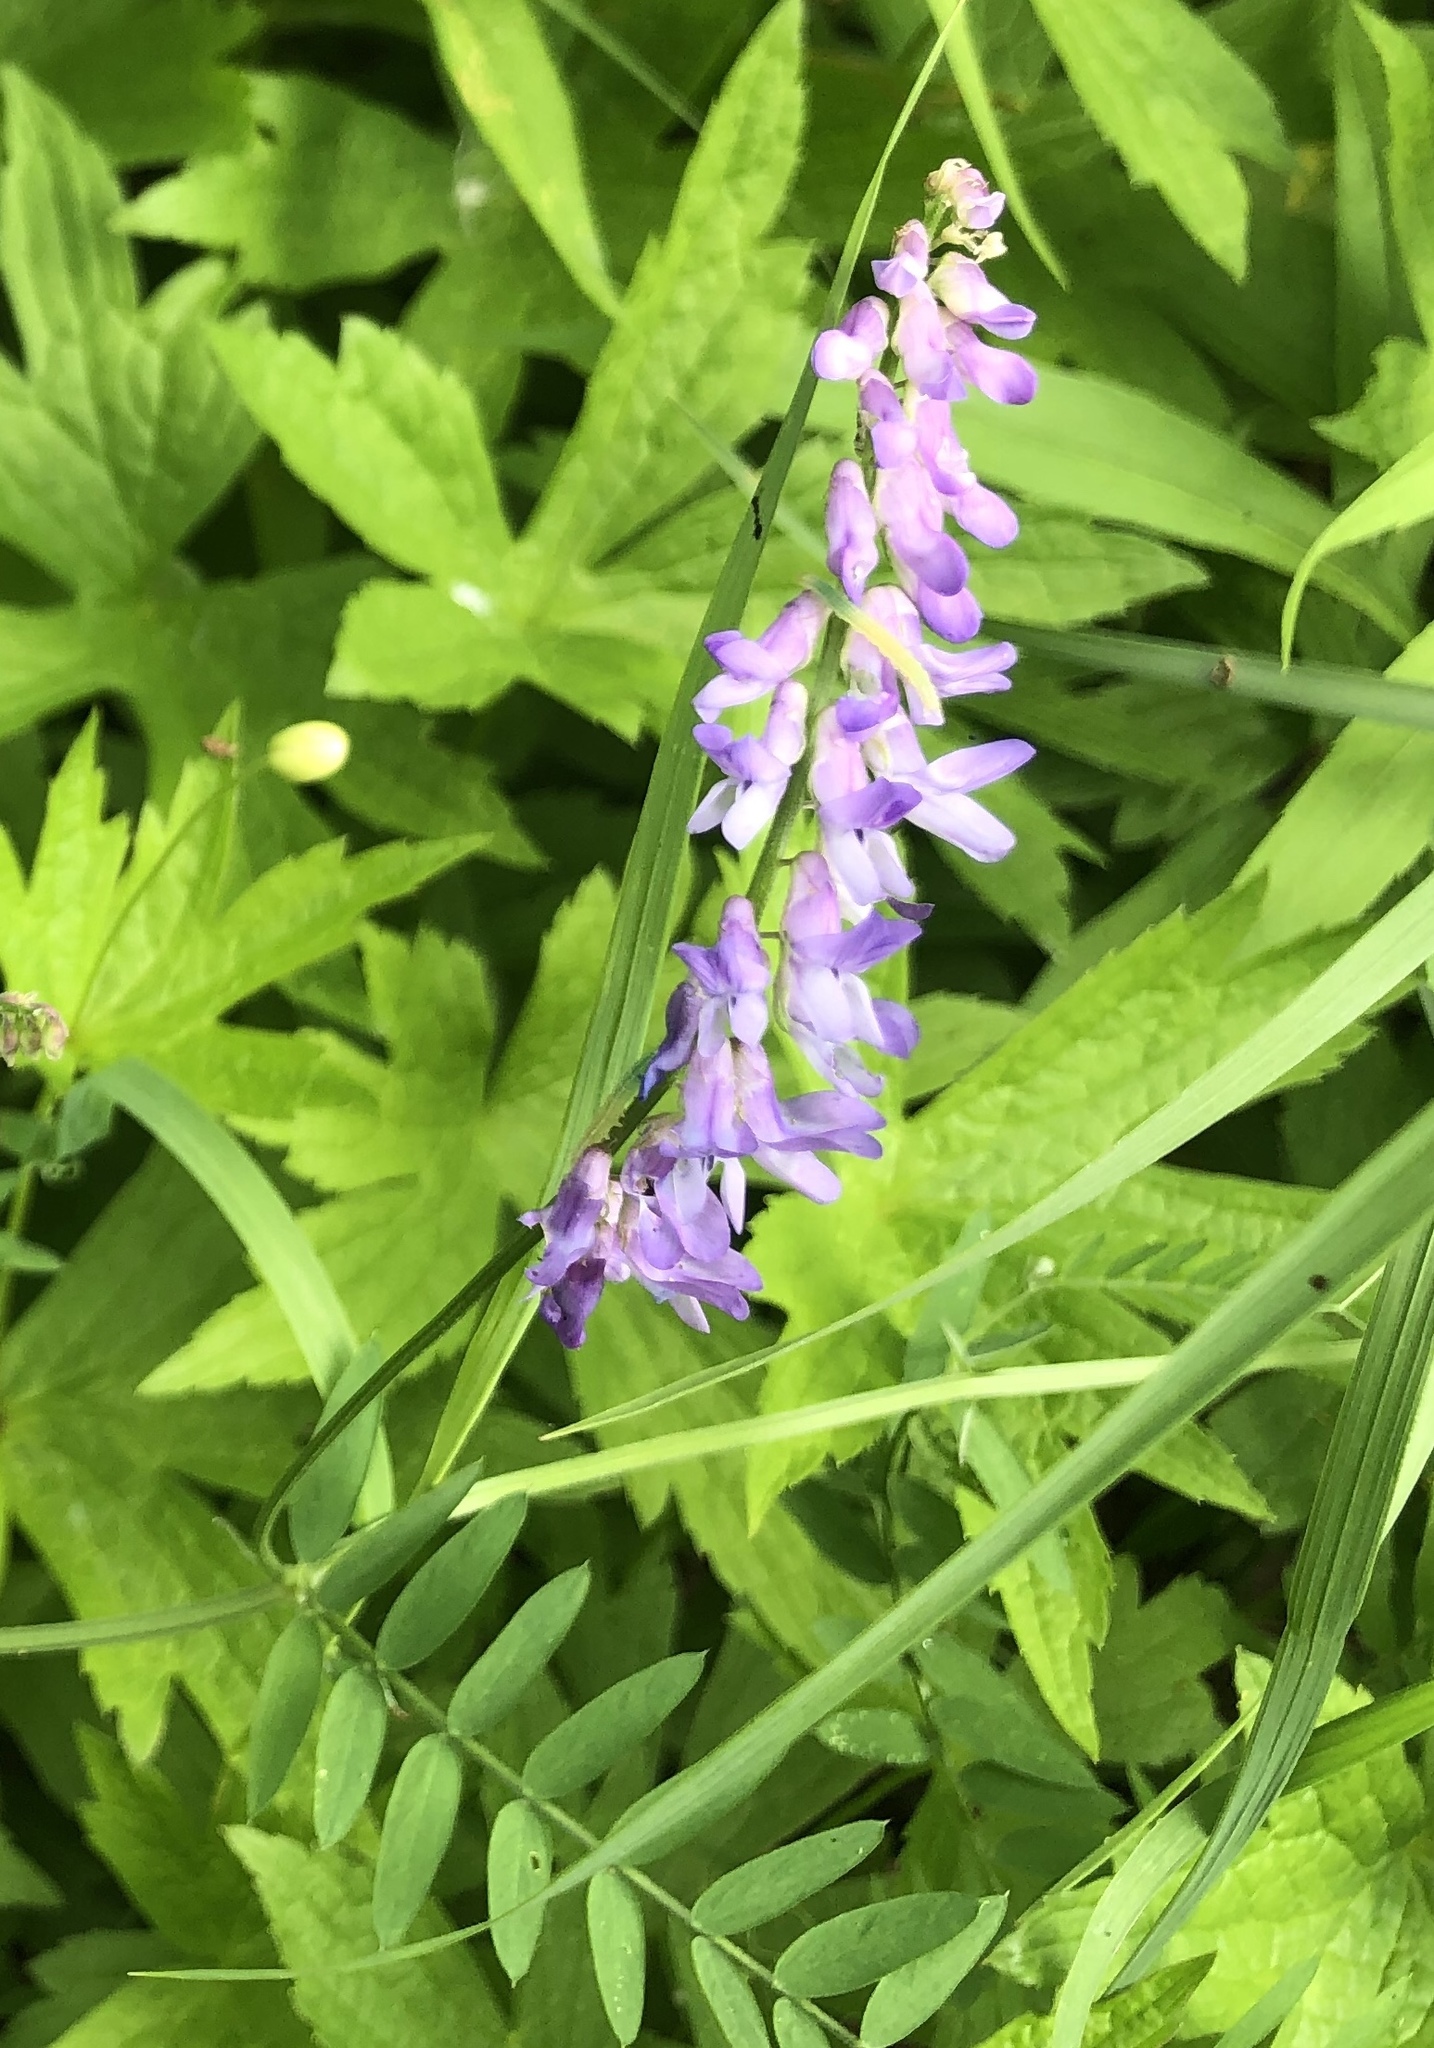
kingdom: Plantae
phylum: Tracheophyta
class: Magnoliopsida
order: Fabales
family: Fabaceae
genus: Vicia
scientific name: Vicia cracca
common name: Bird vetch
